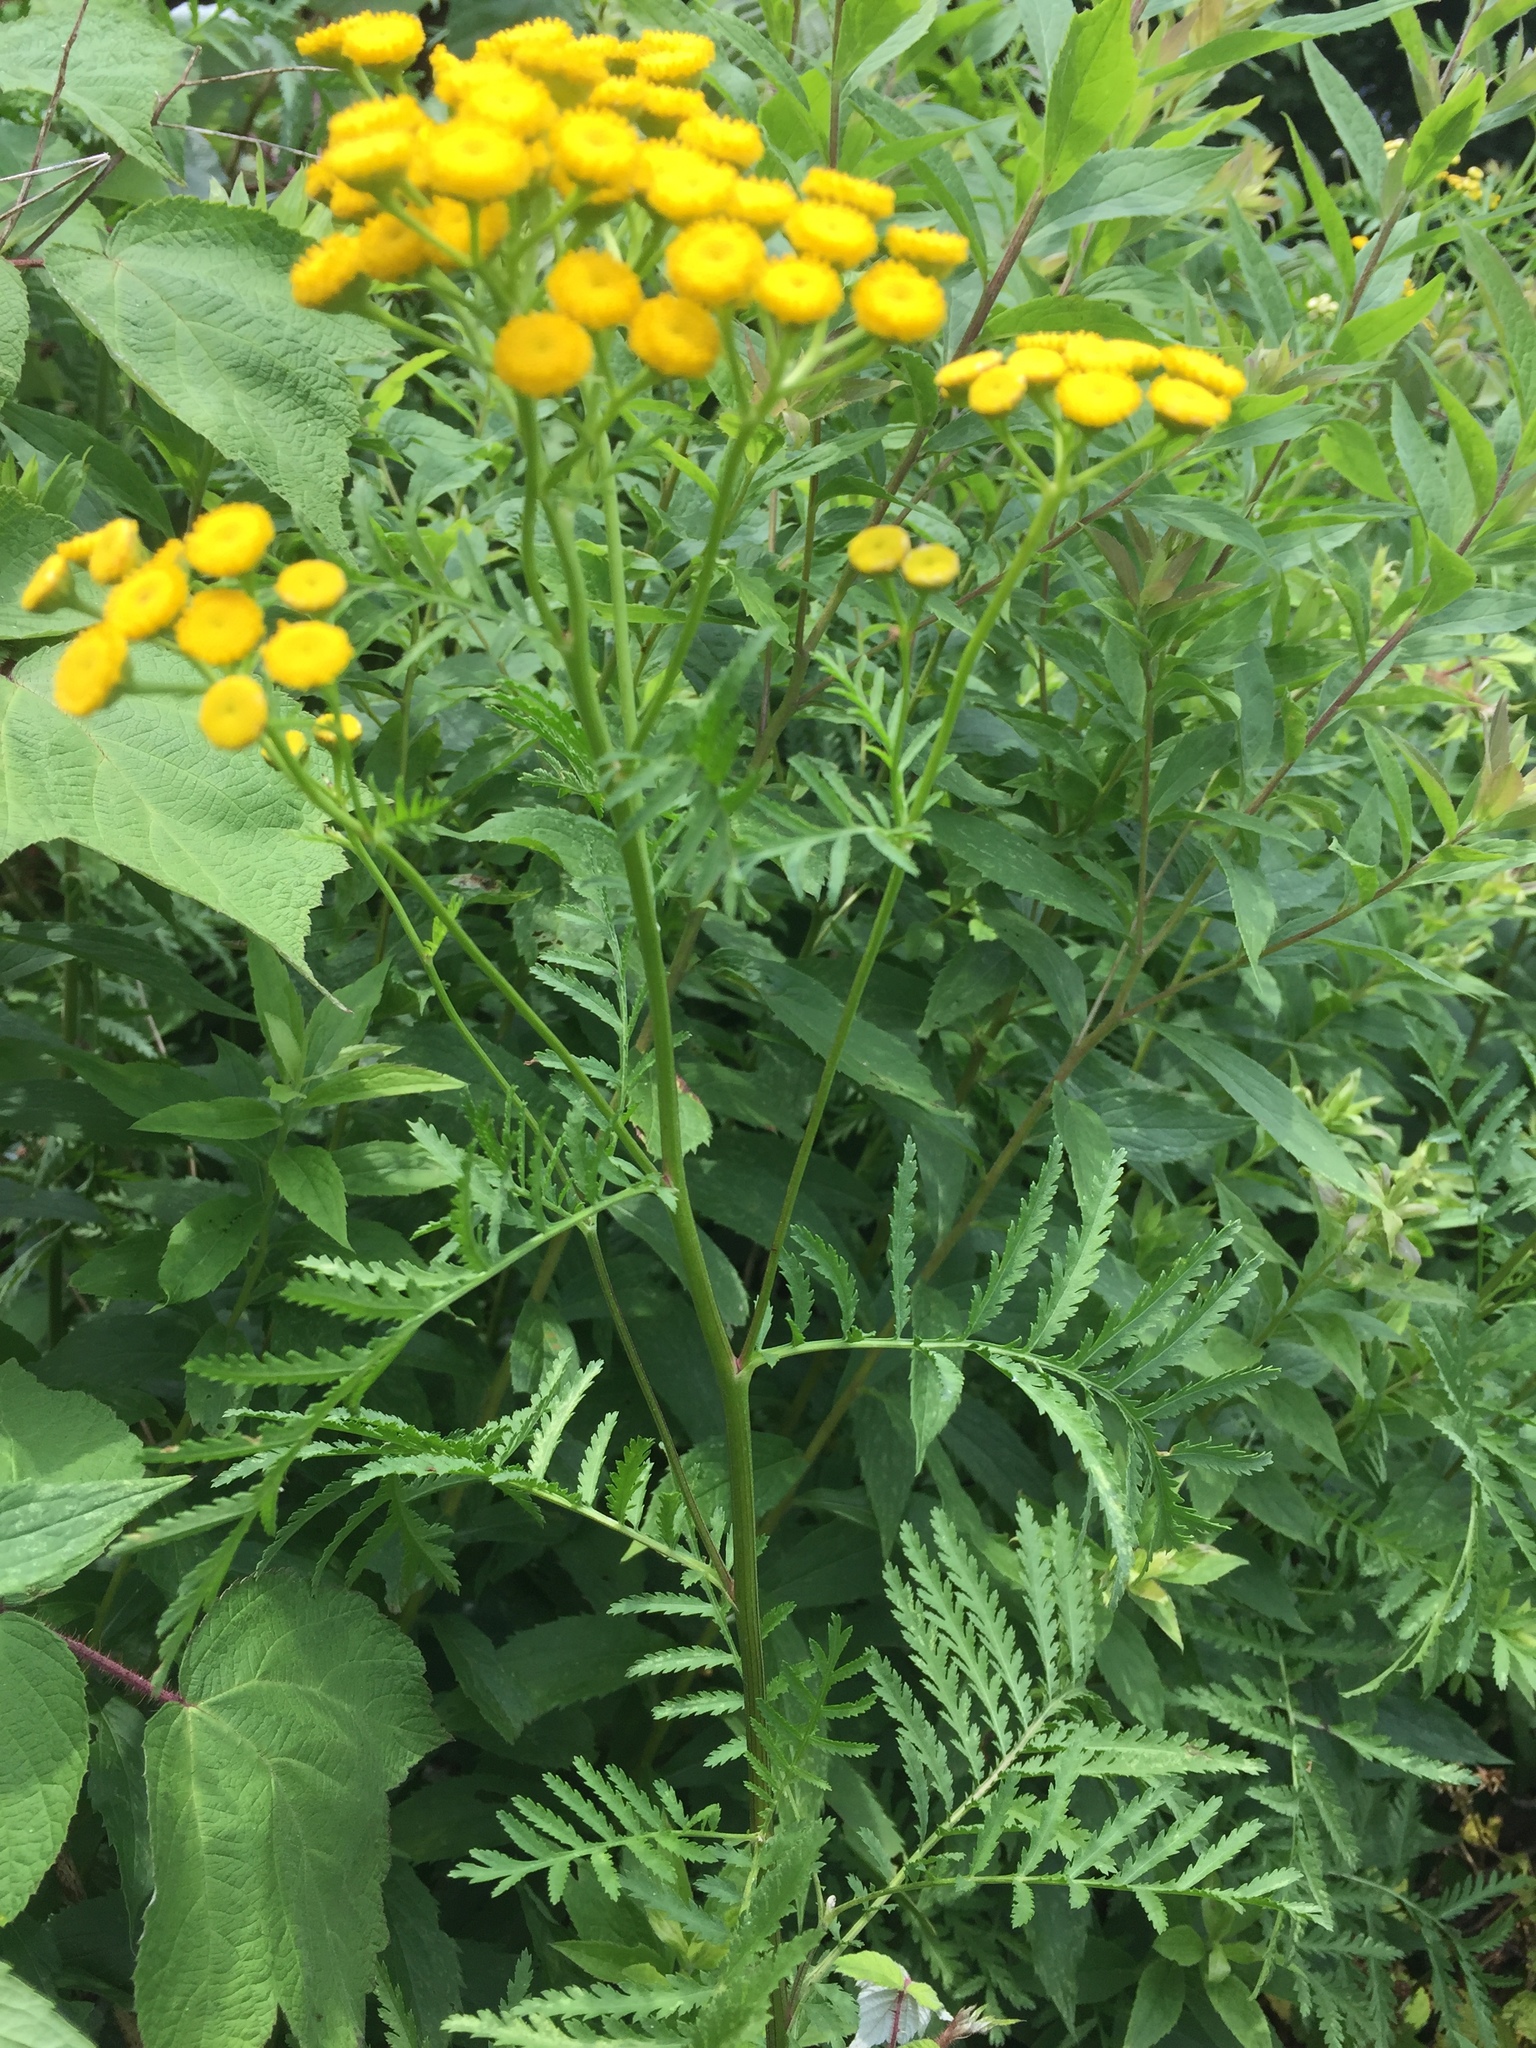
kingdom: Plantae
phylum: Tracheophyta
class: Magnoliopsida
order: Asterales
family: Asteraceae
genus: Tanacetum
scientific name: Tanacetum vulgare
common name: Common tansy
